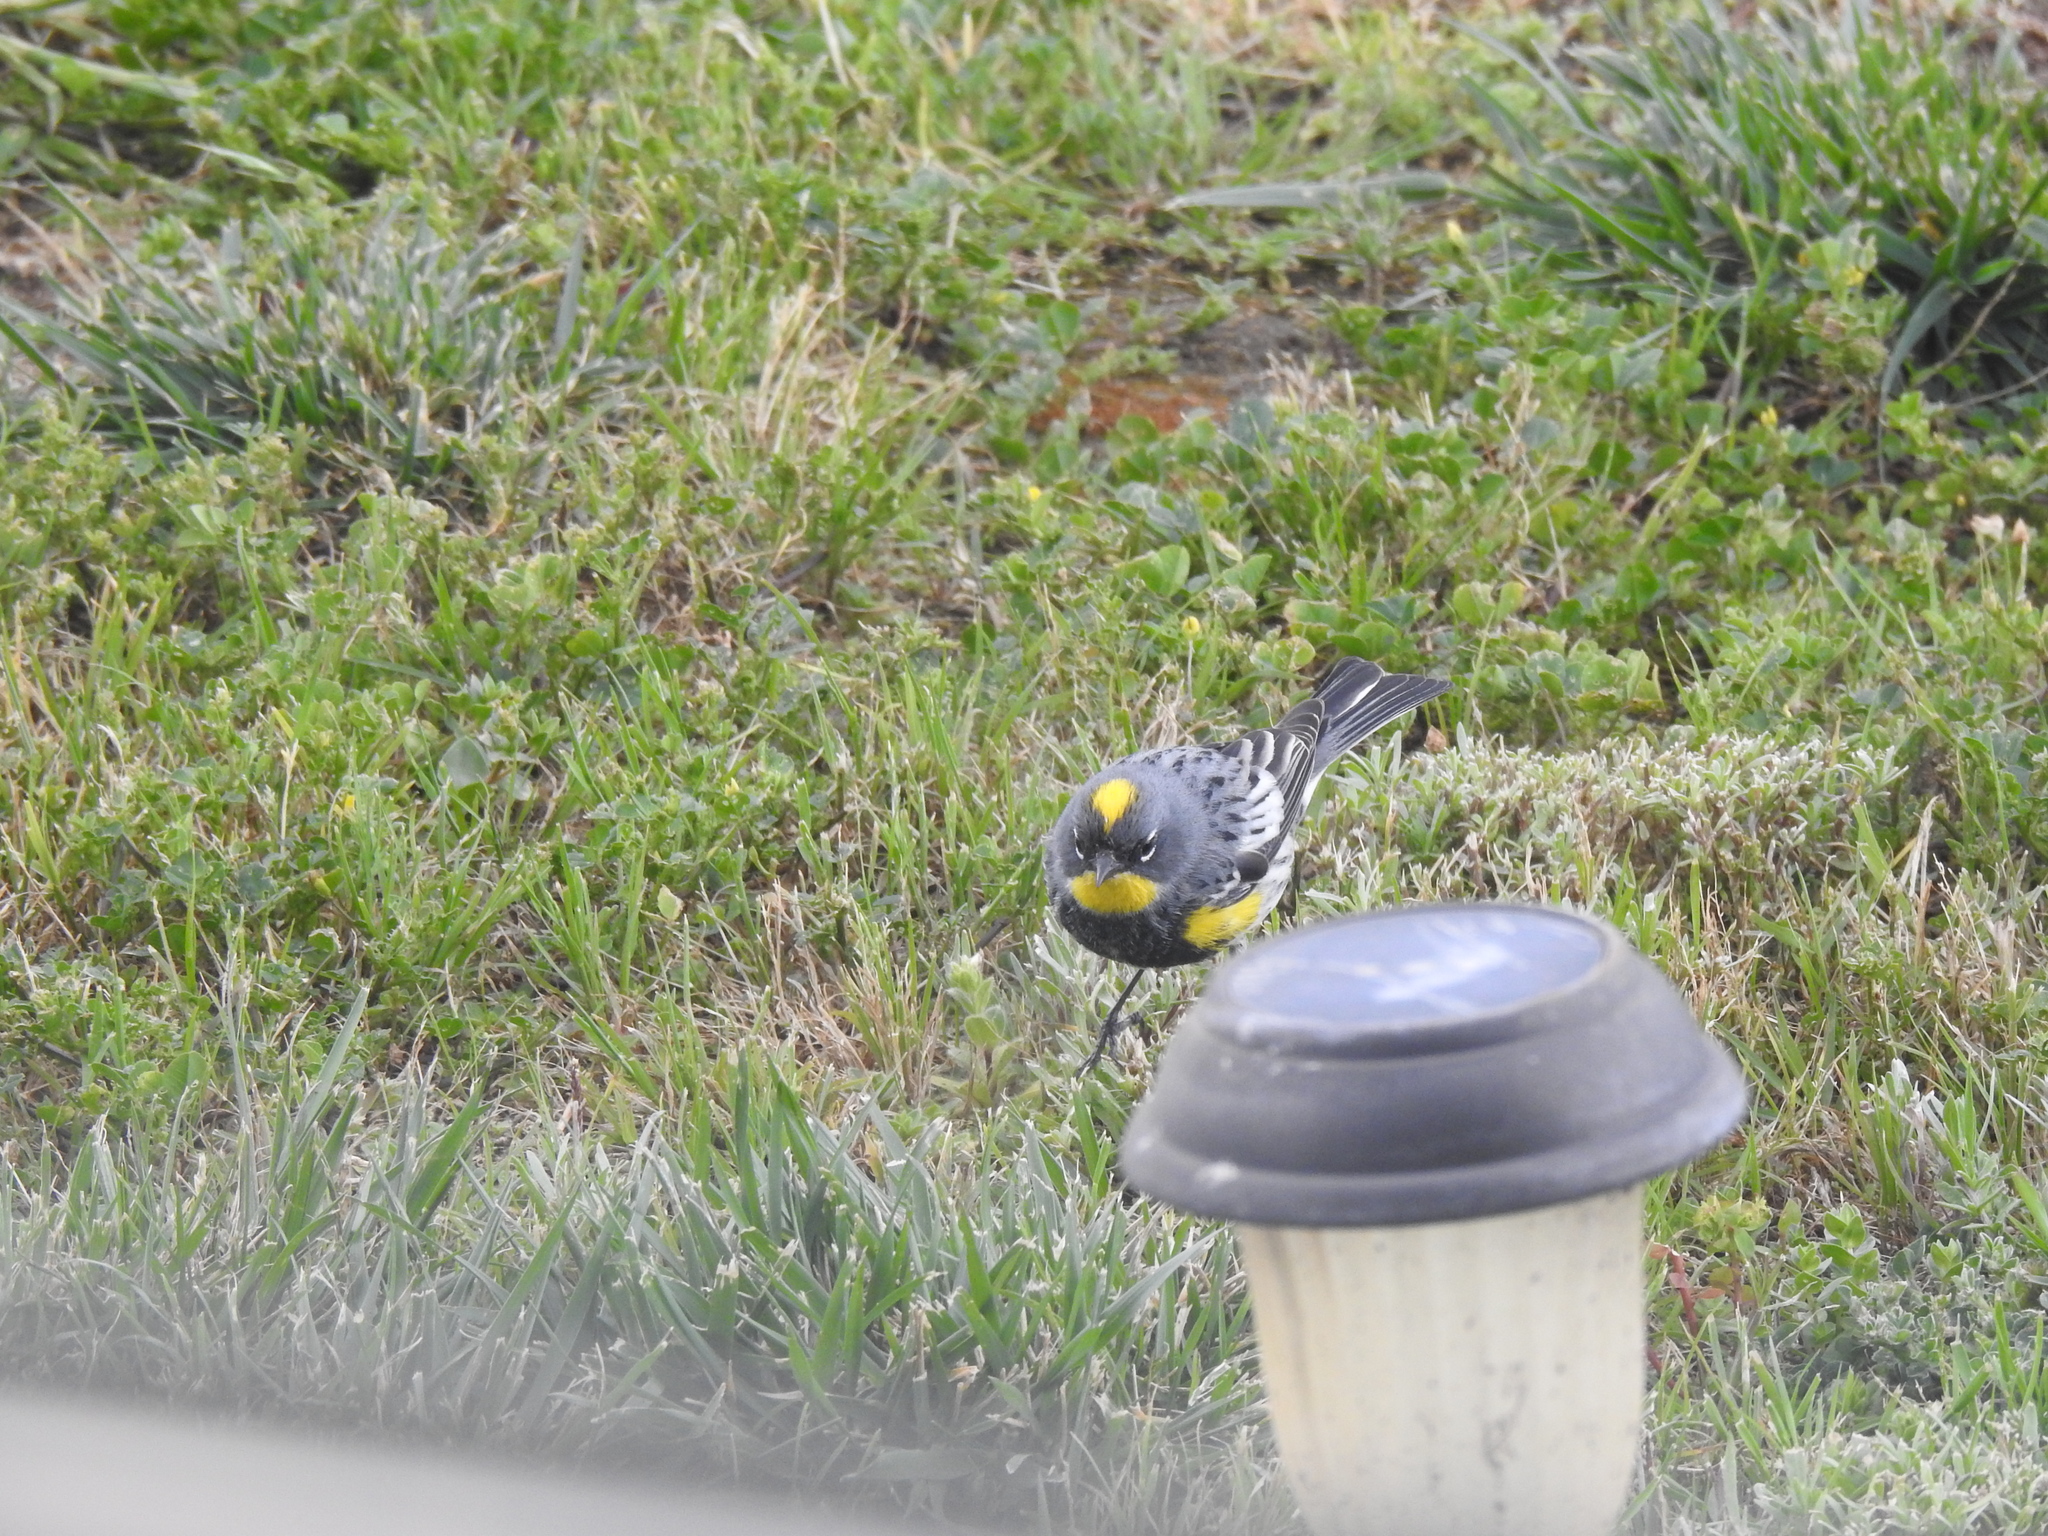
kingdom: Animalia
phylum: Chordata
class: Aves
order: Passeriformes
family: Parulidae
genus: Setophaga
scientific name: Setophaga coronata
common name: Myrtle warbler
